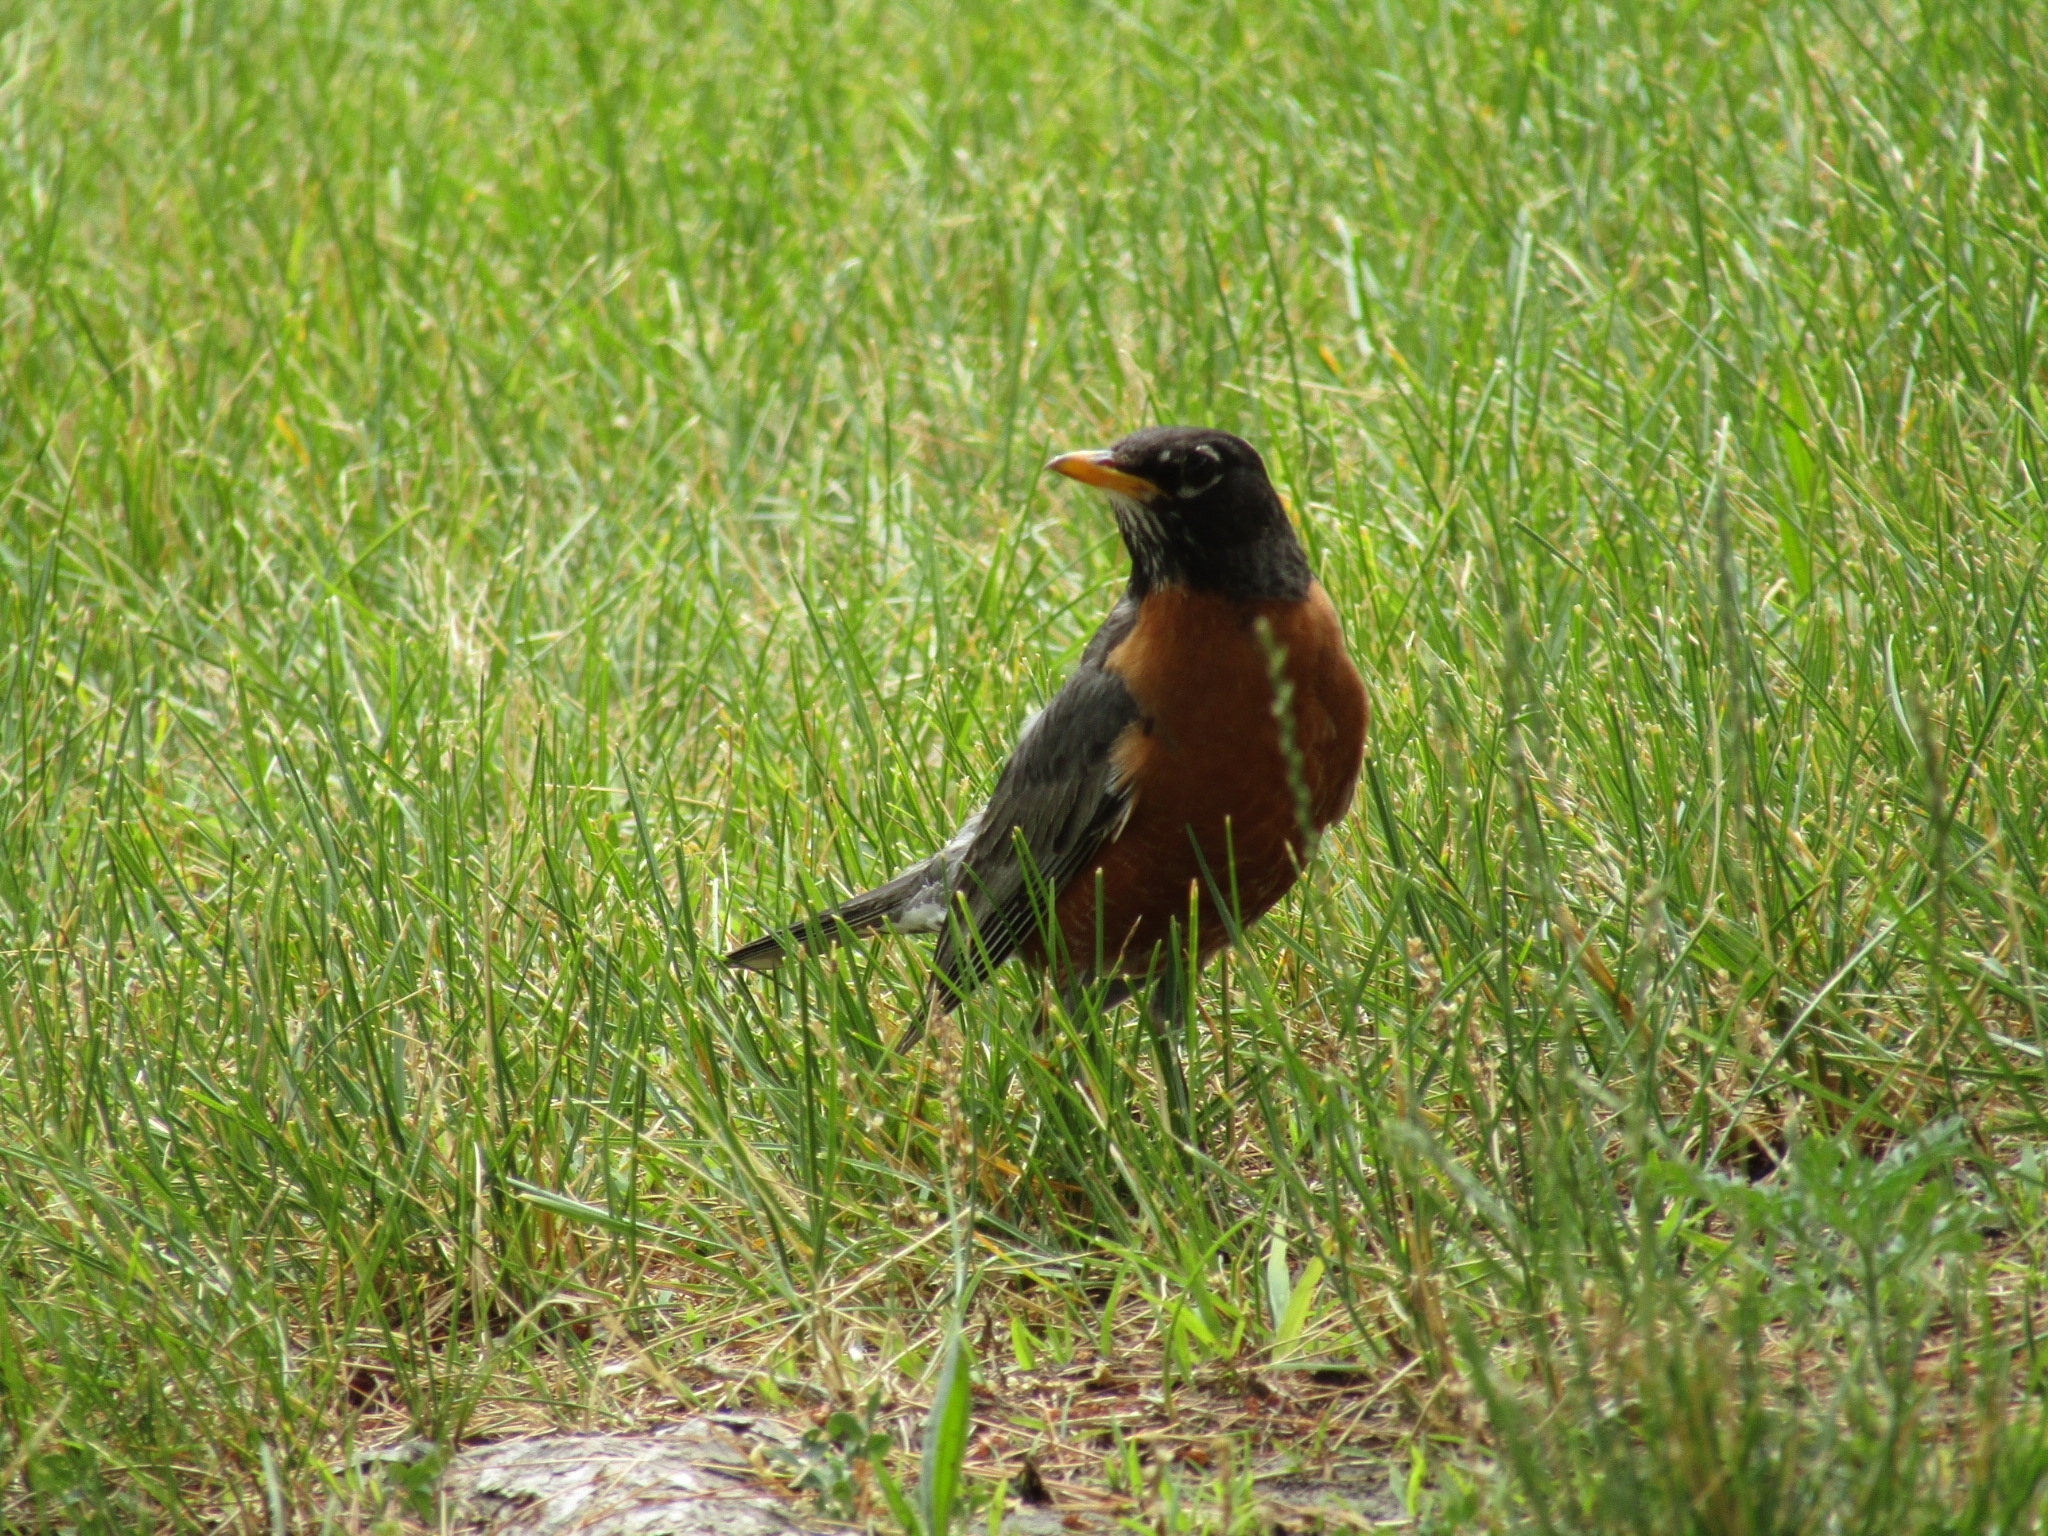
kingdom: Animalia
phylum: Chordata
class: Aves
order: Passeriformes
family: Turdidae
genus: Turdus
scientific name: Turdus migratorius
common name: American robin
